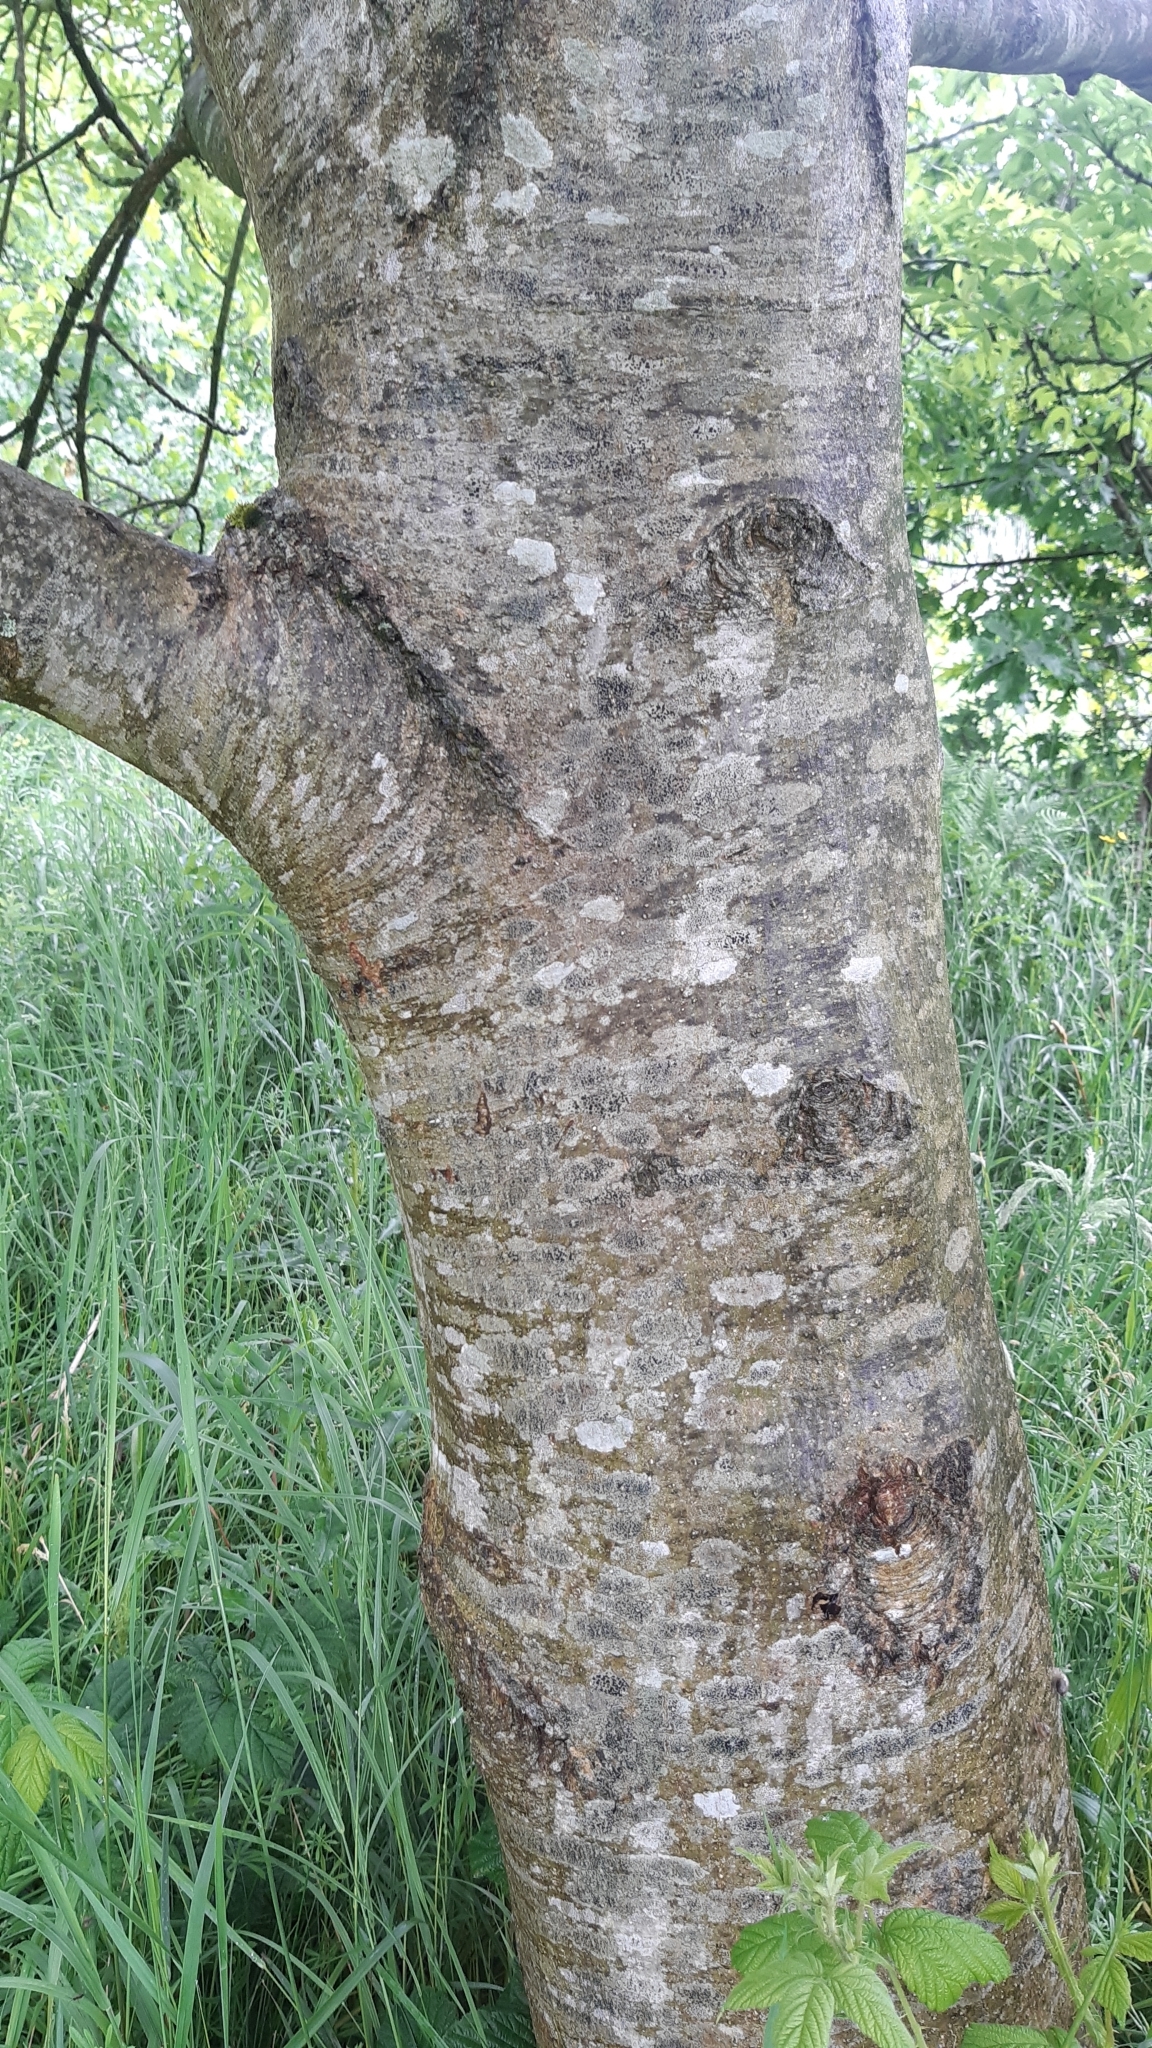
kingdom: Plantae
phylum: Tracheophyta
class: Magnoliopsida
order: Lamiales
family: Oleaceae
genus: Fraxinus
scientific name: Fraxinus excelsior
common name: European ash
